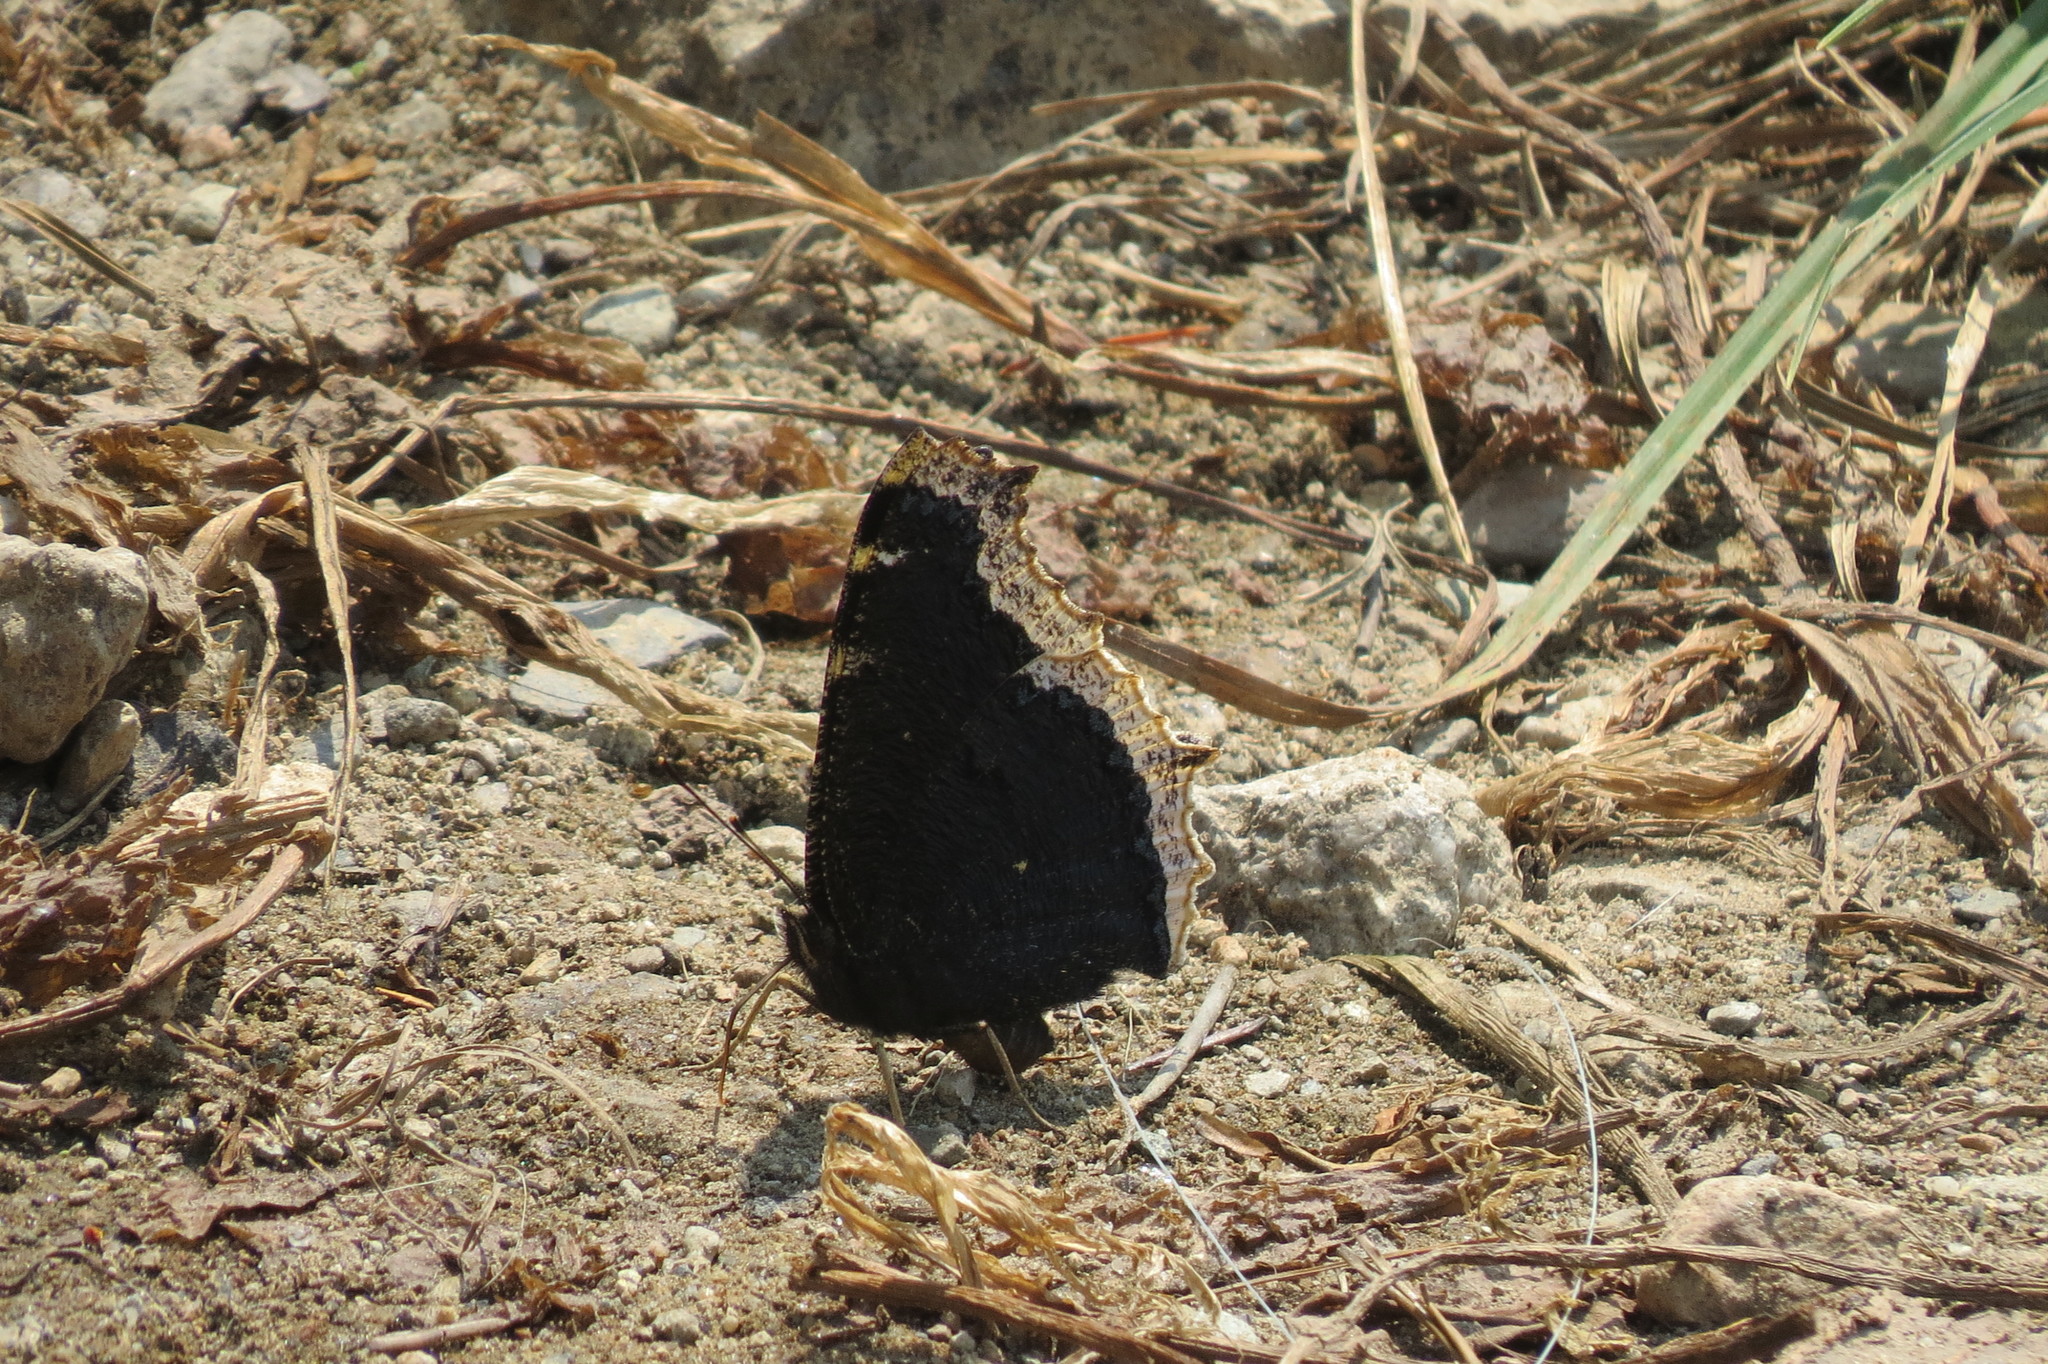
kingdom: Animalia
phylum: Arthropoda
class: Insecta
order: Lepidoptera
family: Nymphalidae
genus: Nymphalis
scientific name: Nymphalis antiopa
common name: Camberwell beauty
